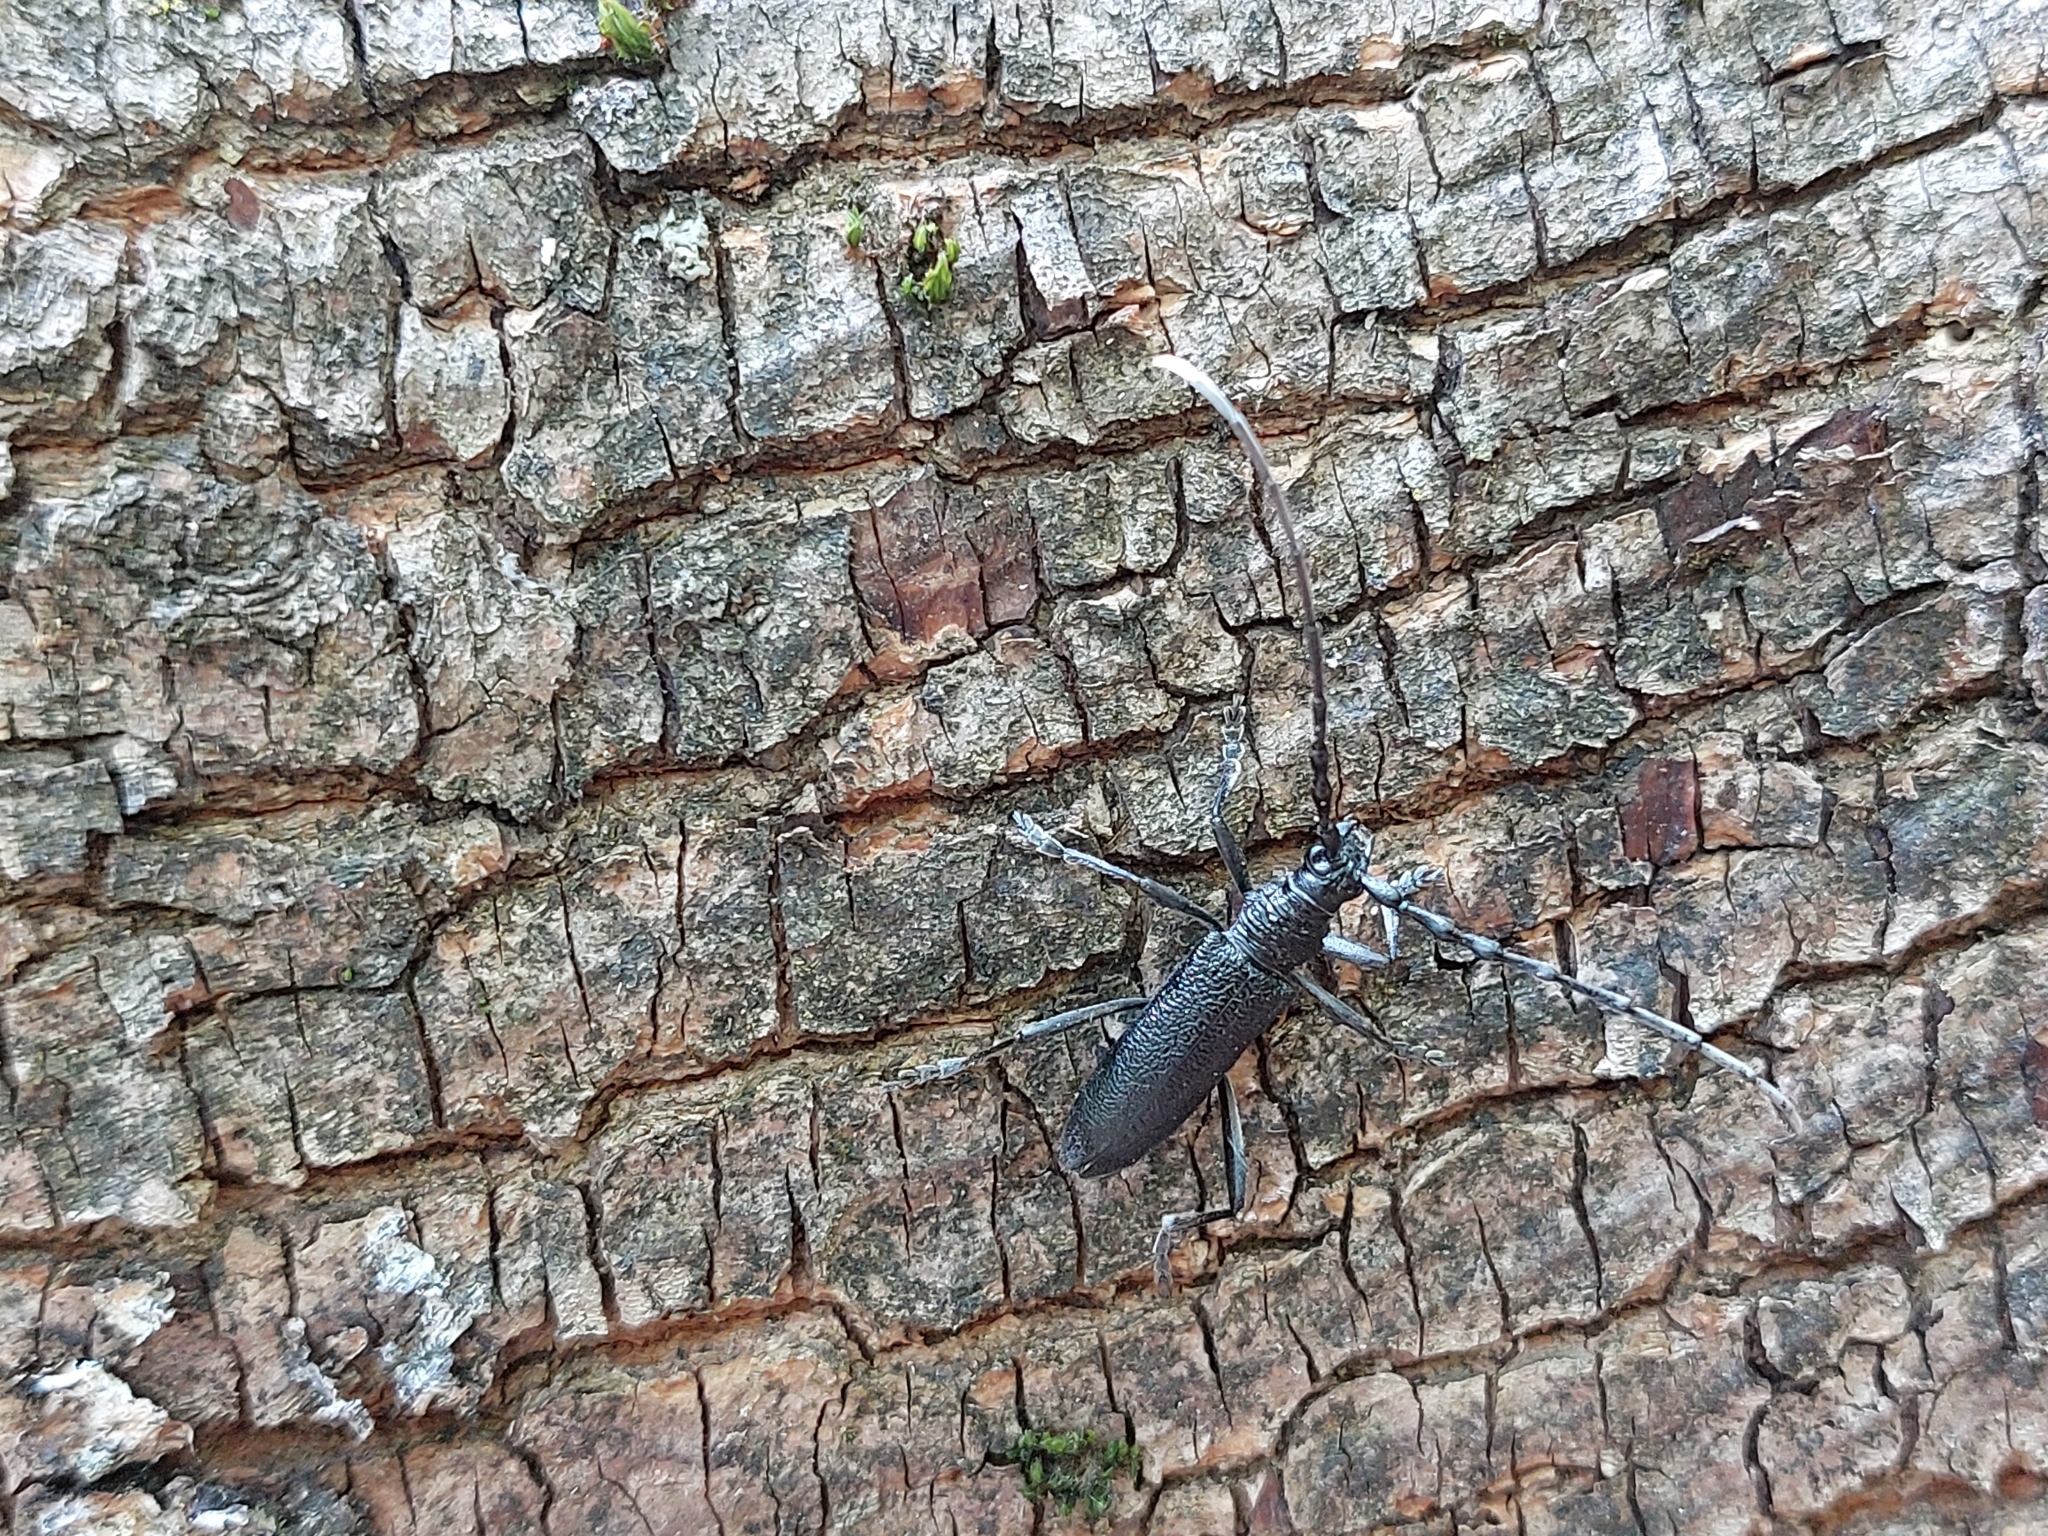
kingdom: Animalia
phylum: Arthropoda
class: Insecta
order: Coleoptera
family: Cerambycidae
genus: Cerambyx
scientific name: Cerambyx scopolii
